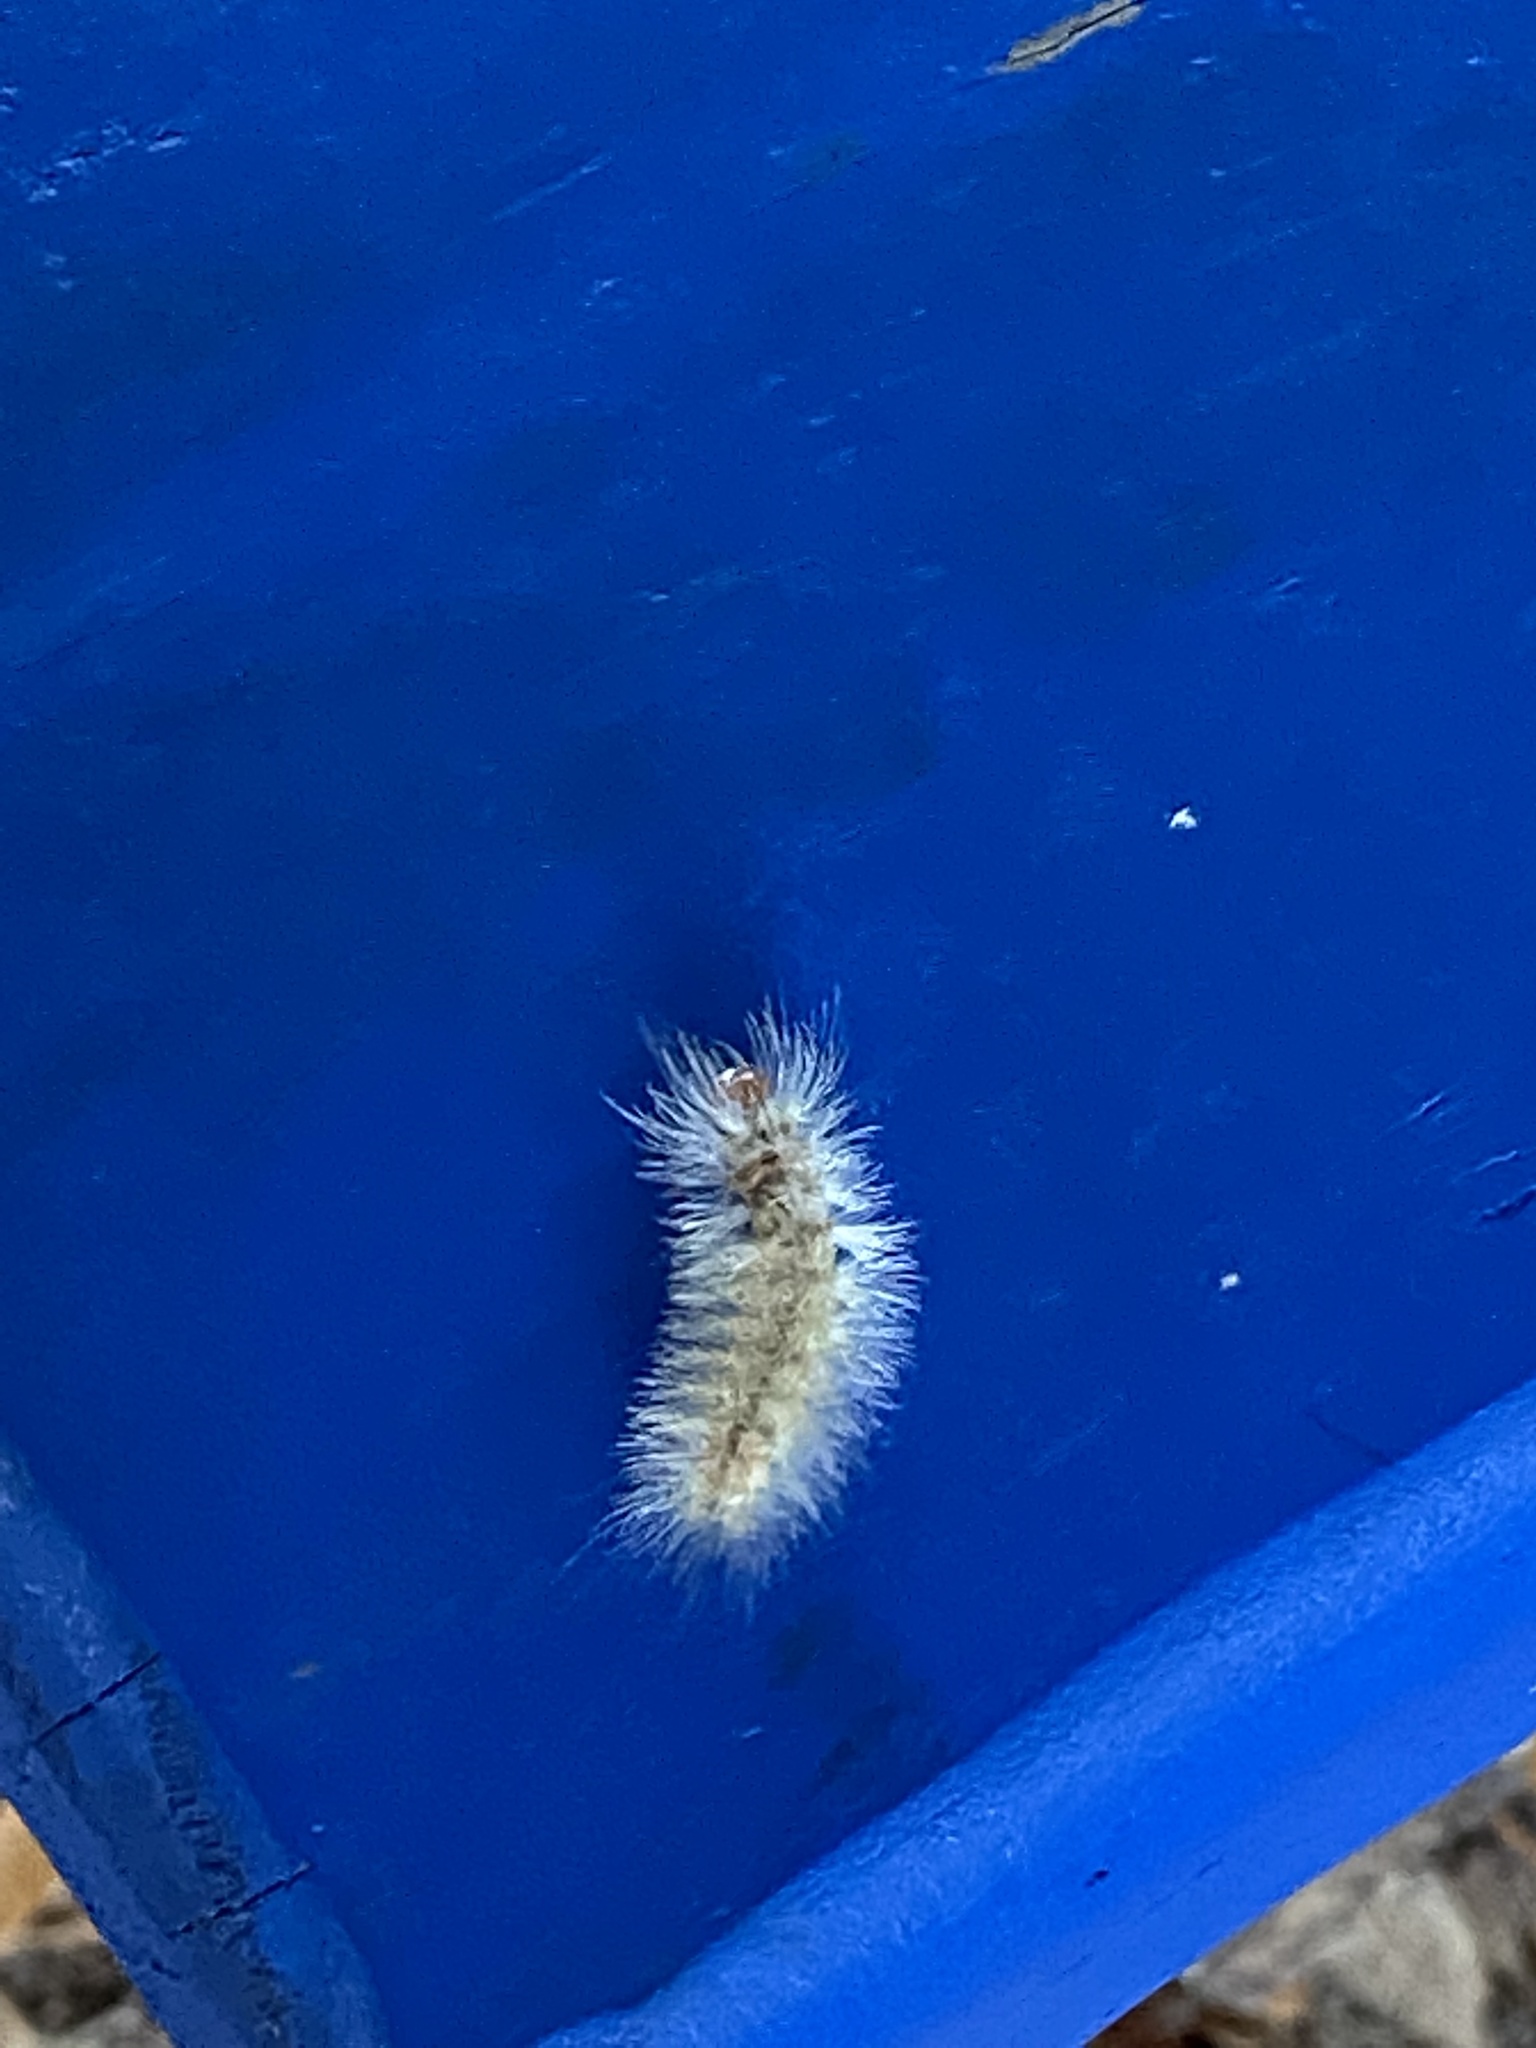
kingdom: Animalia
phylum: Arthropoda
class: Insecta
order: Lepidoptera
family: Erebidae
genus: Lymire
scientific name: Lymire edwardsii
